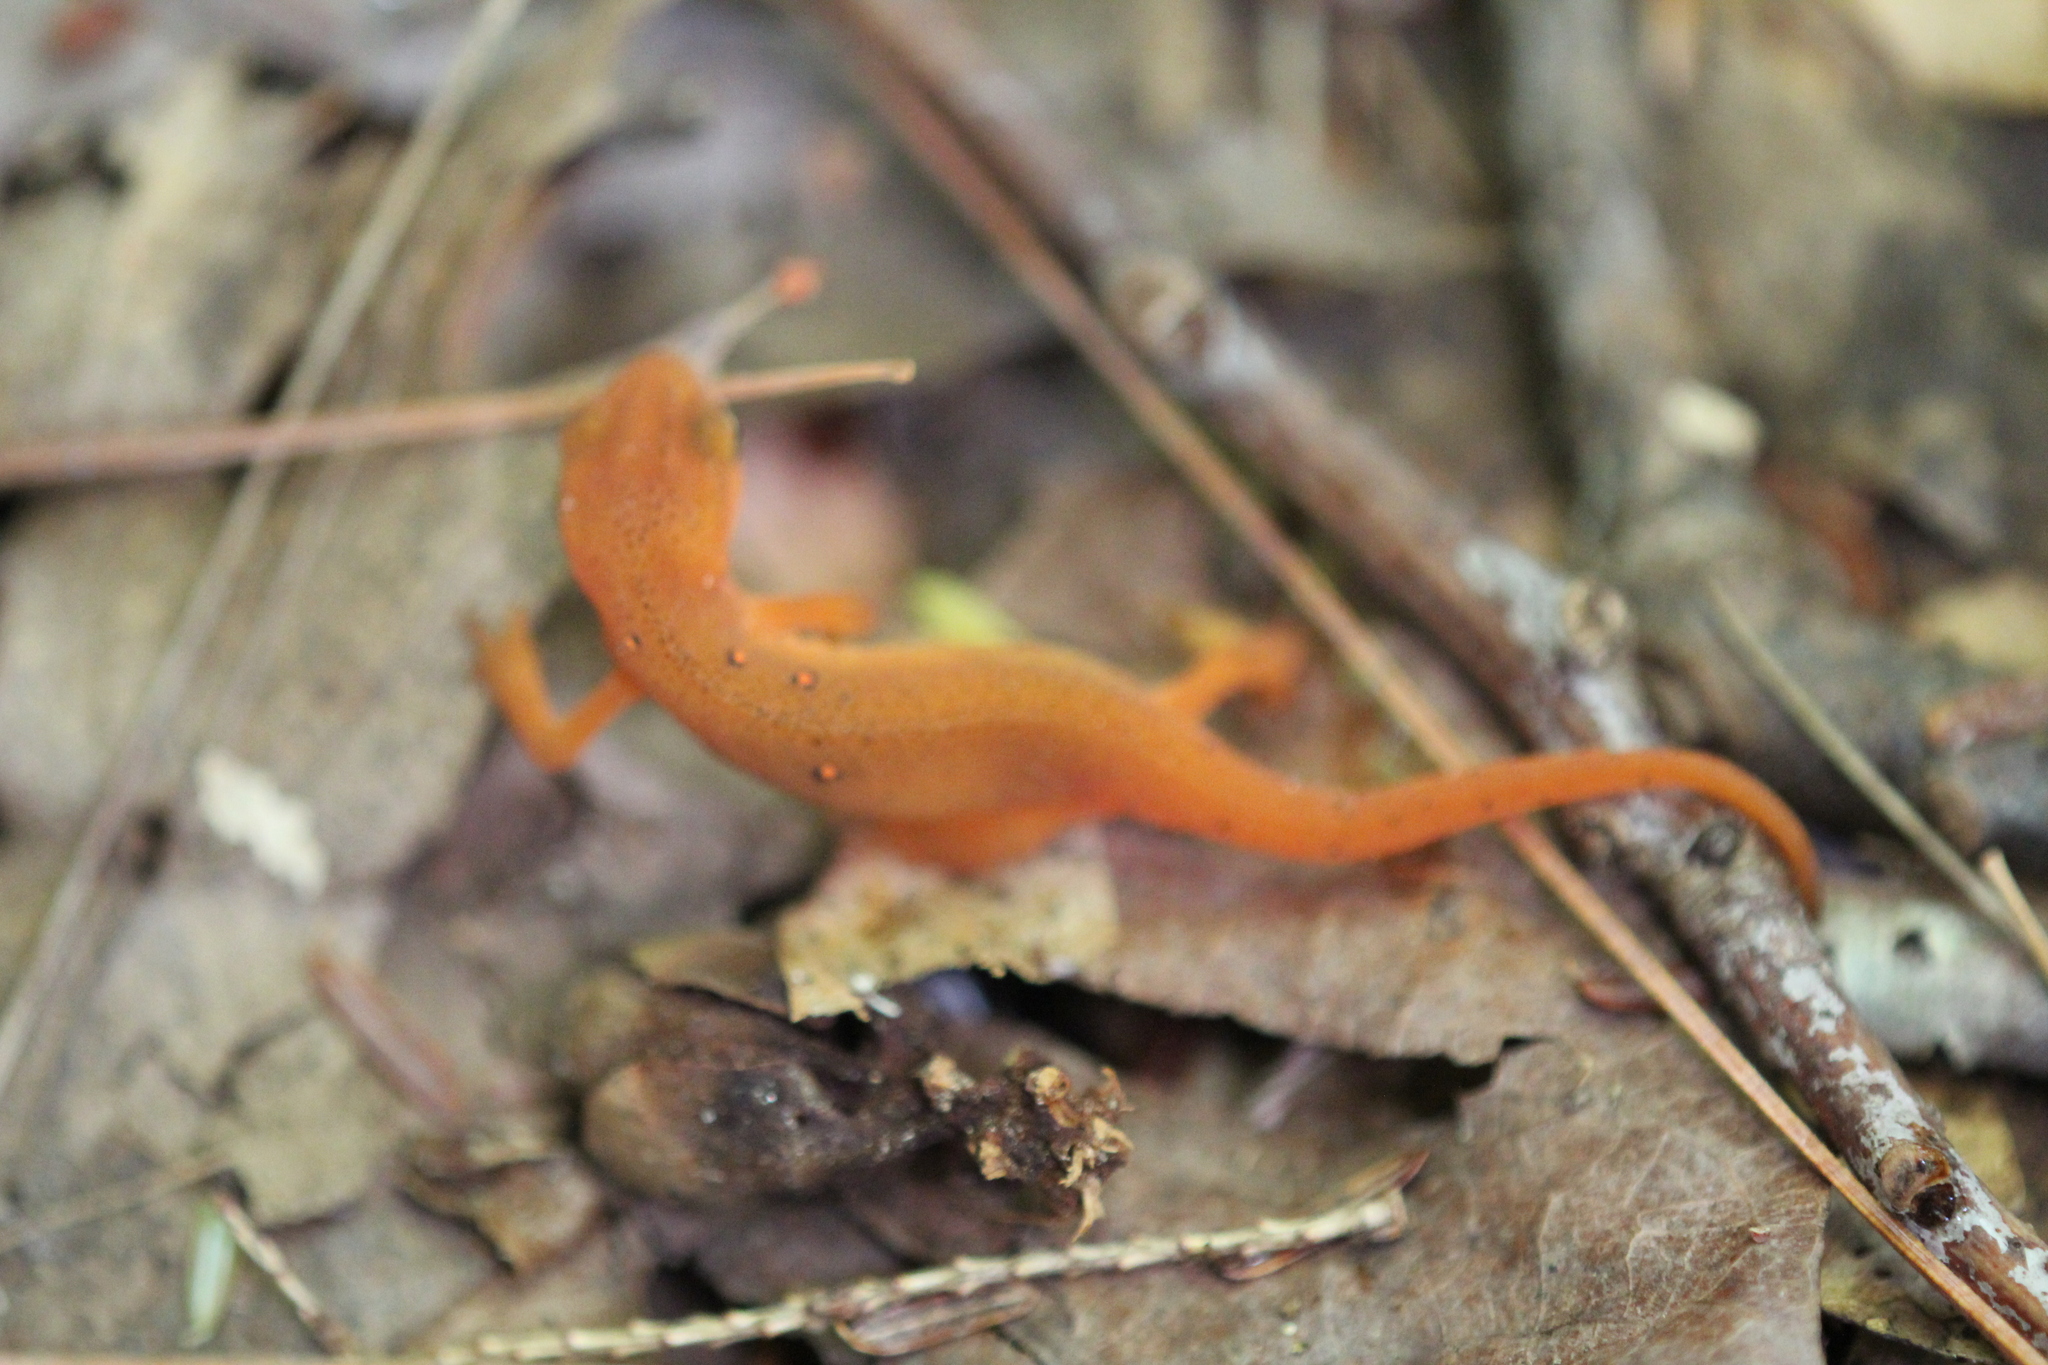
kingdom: Animalia
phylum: Chordata
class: Amphibia
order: Caudata
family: Salamandridae
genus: Notophthalmus
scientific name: Notophthalmus viridescens
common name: Eastern newt
